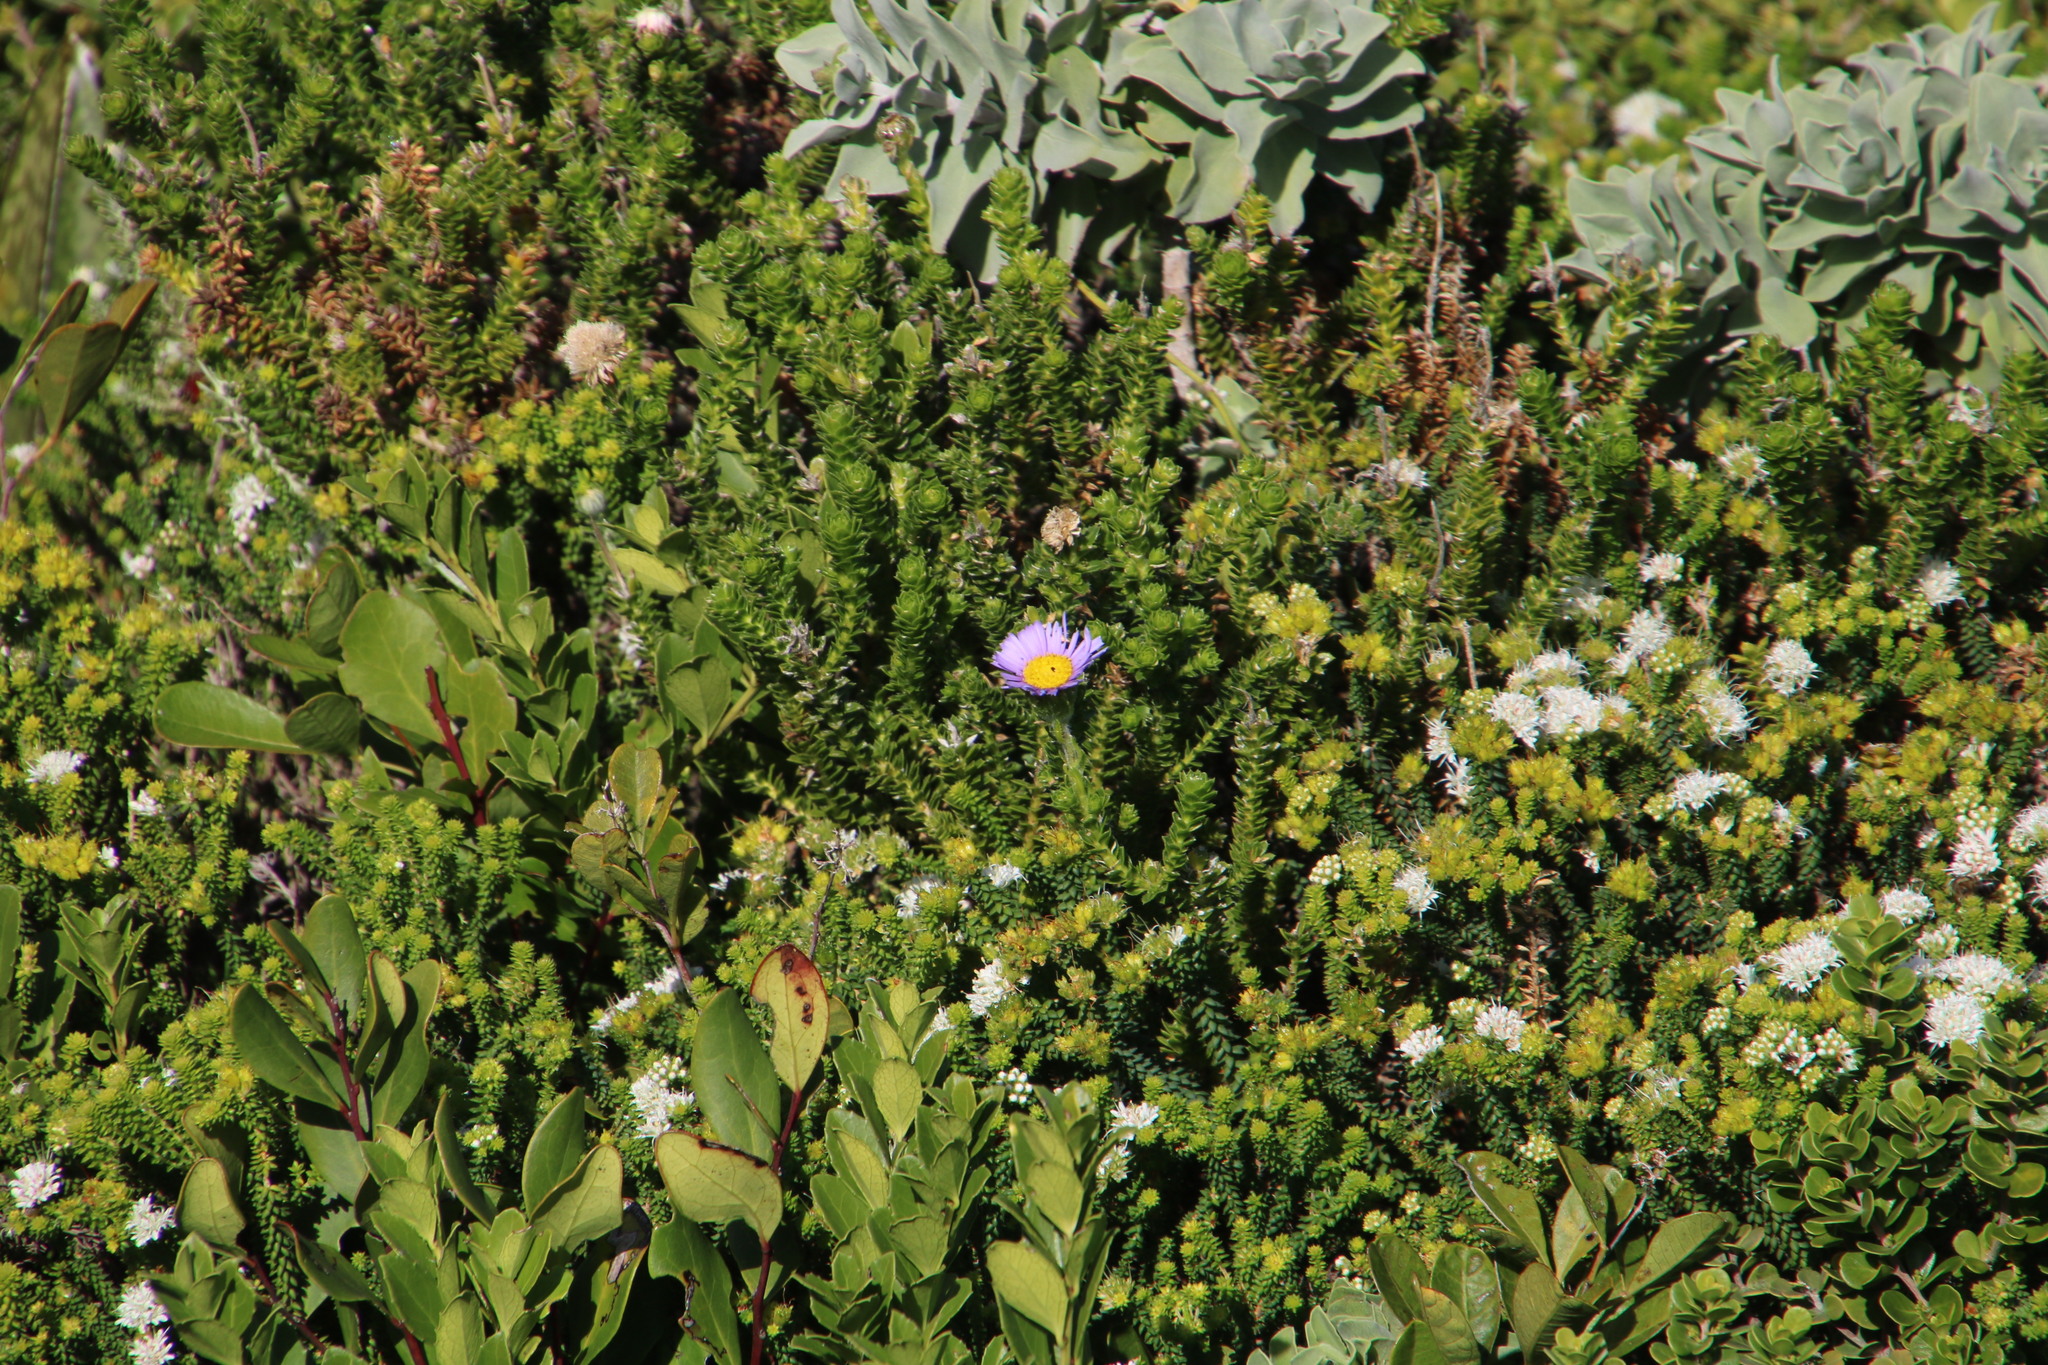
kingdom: Plantae
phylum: Tracheophyta
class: Magnoliopsida
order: Asterales
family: Asteraceae
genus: Felicia
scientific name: Felicia echinata
